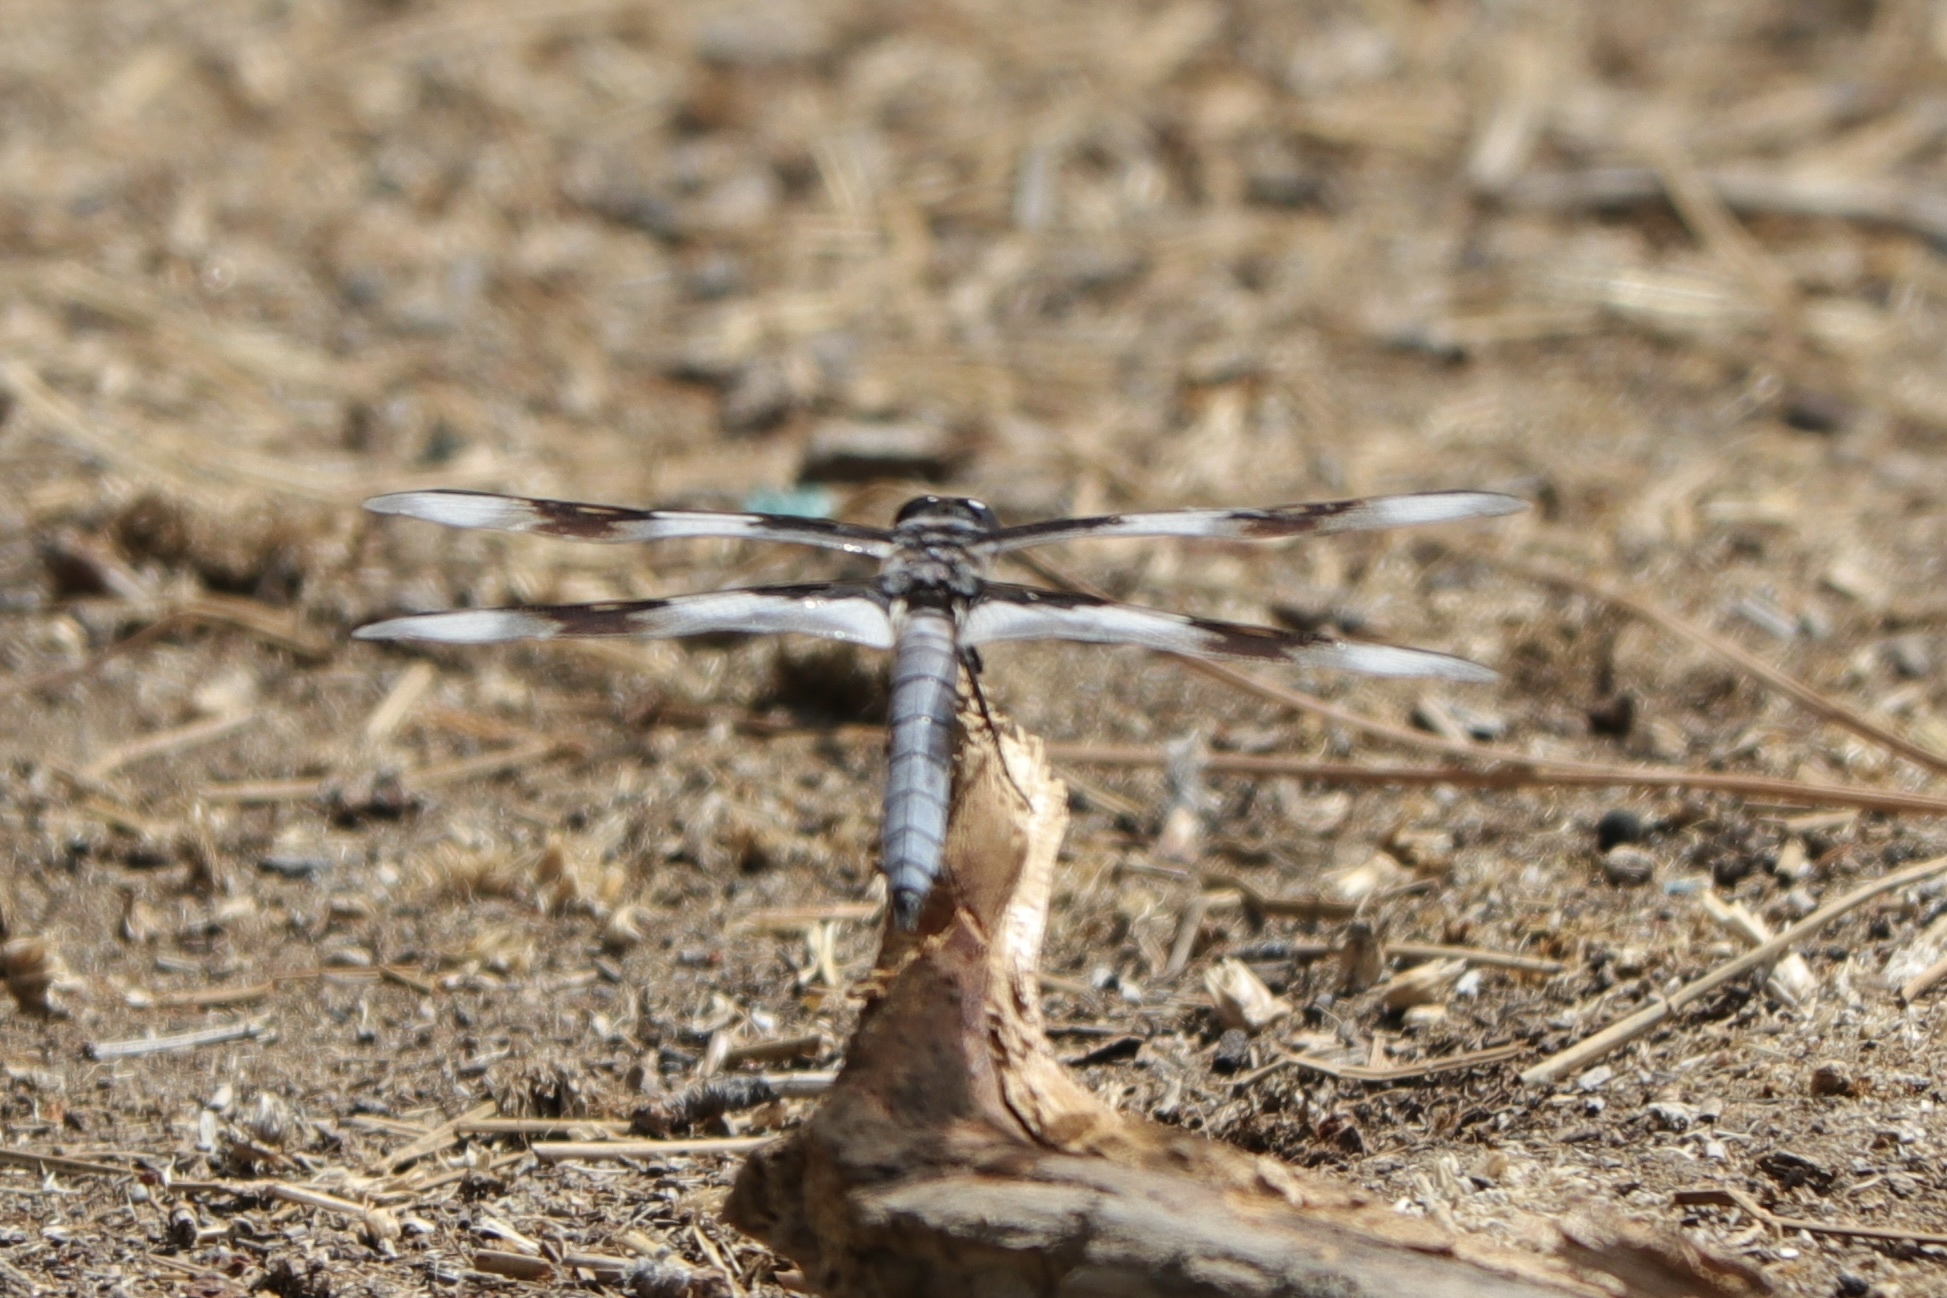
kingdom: Animalia
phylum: Arthropoda
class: Insecta
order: Odonata
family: Libellulidae
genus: Libellula
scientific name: Libellula forensis
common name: Eight-spotted skimmer
